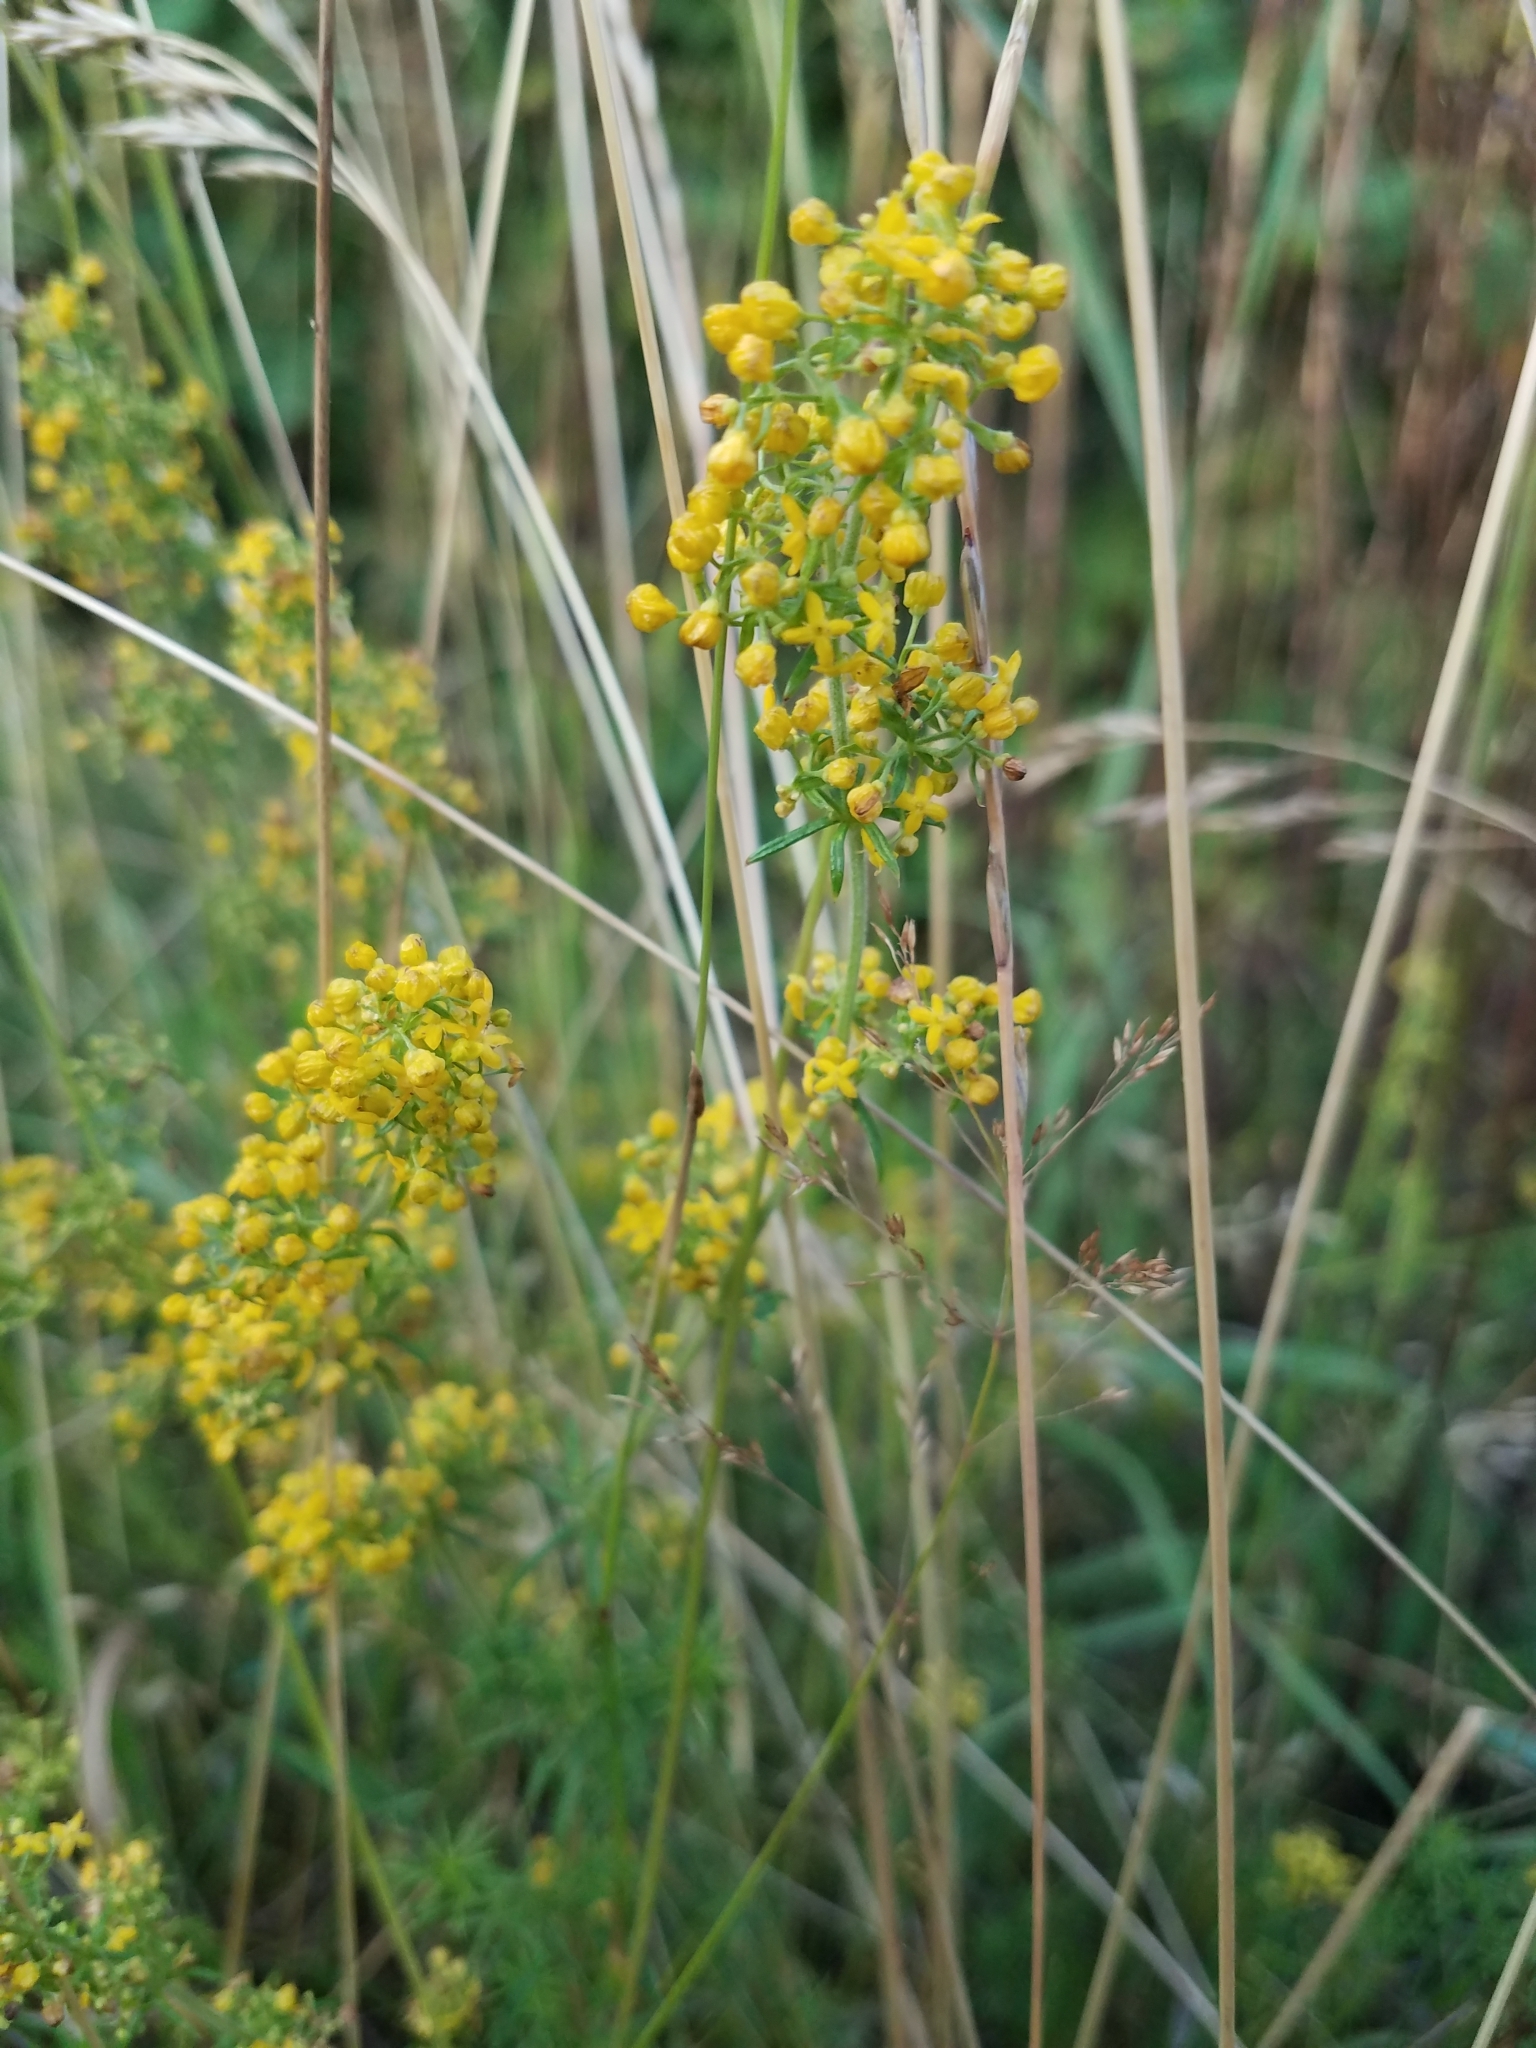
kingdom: Plantae
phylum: Tracheophyta
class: Magnoliopsida
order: Gentianales
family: Rubiaceae
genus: Galium
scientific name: Galium verum
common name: Lady's bedstraw
